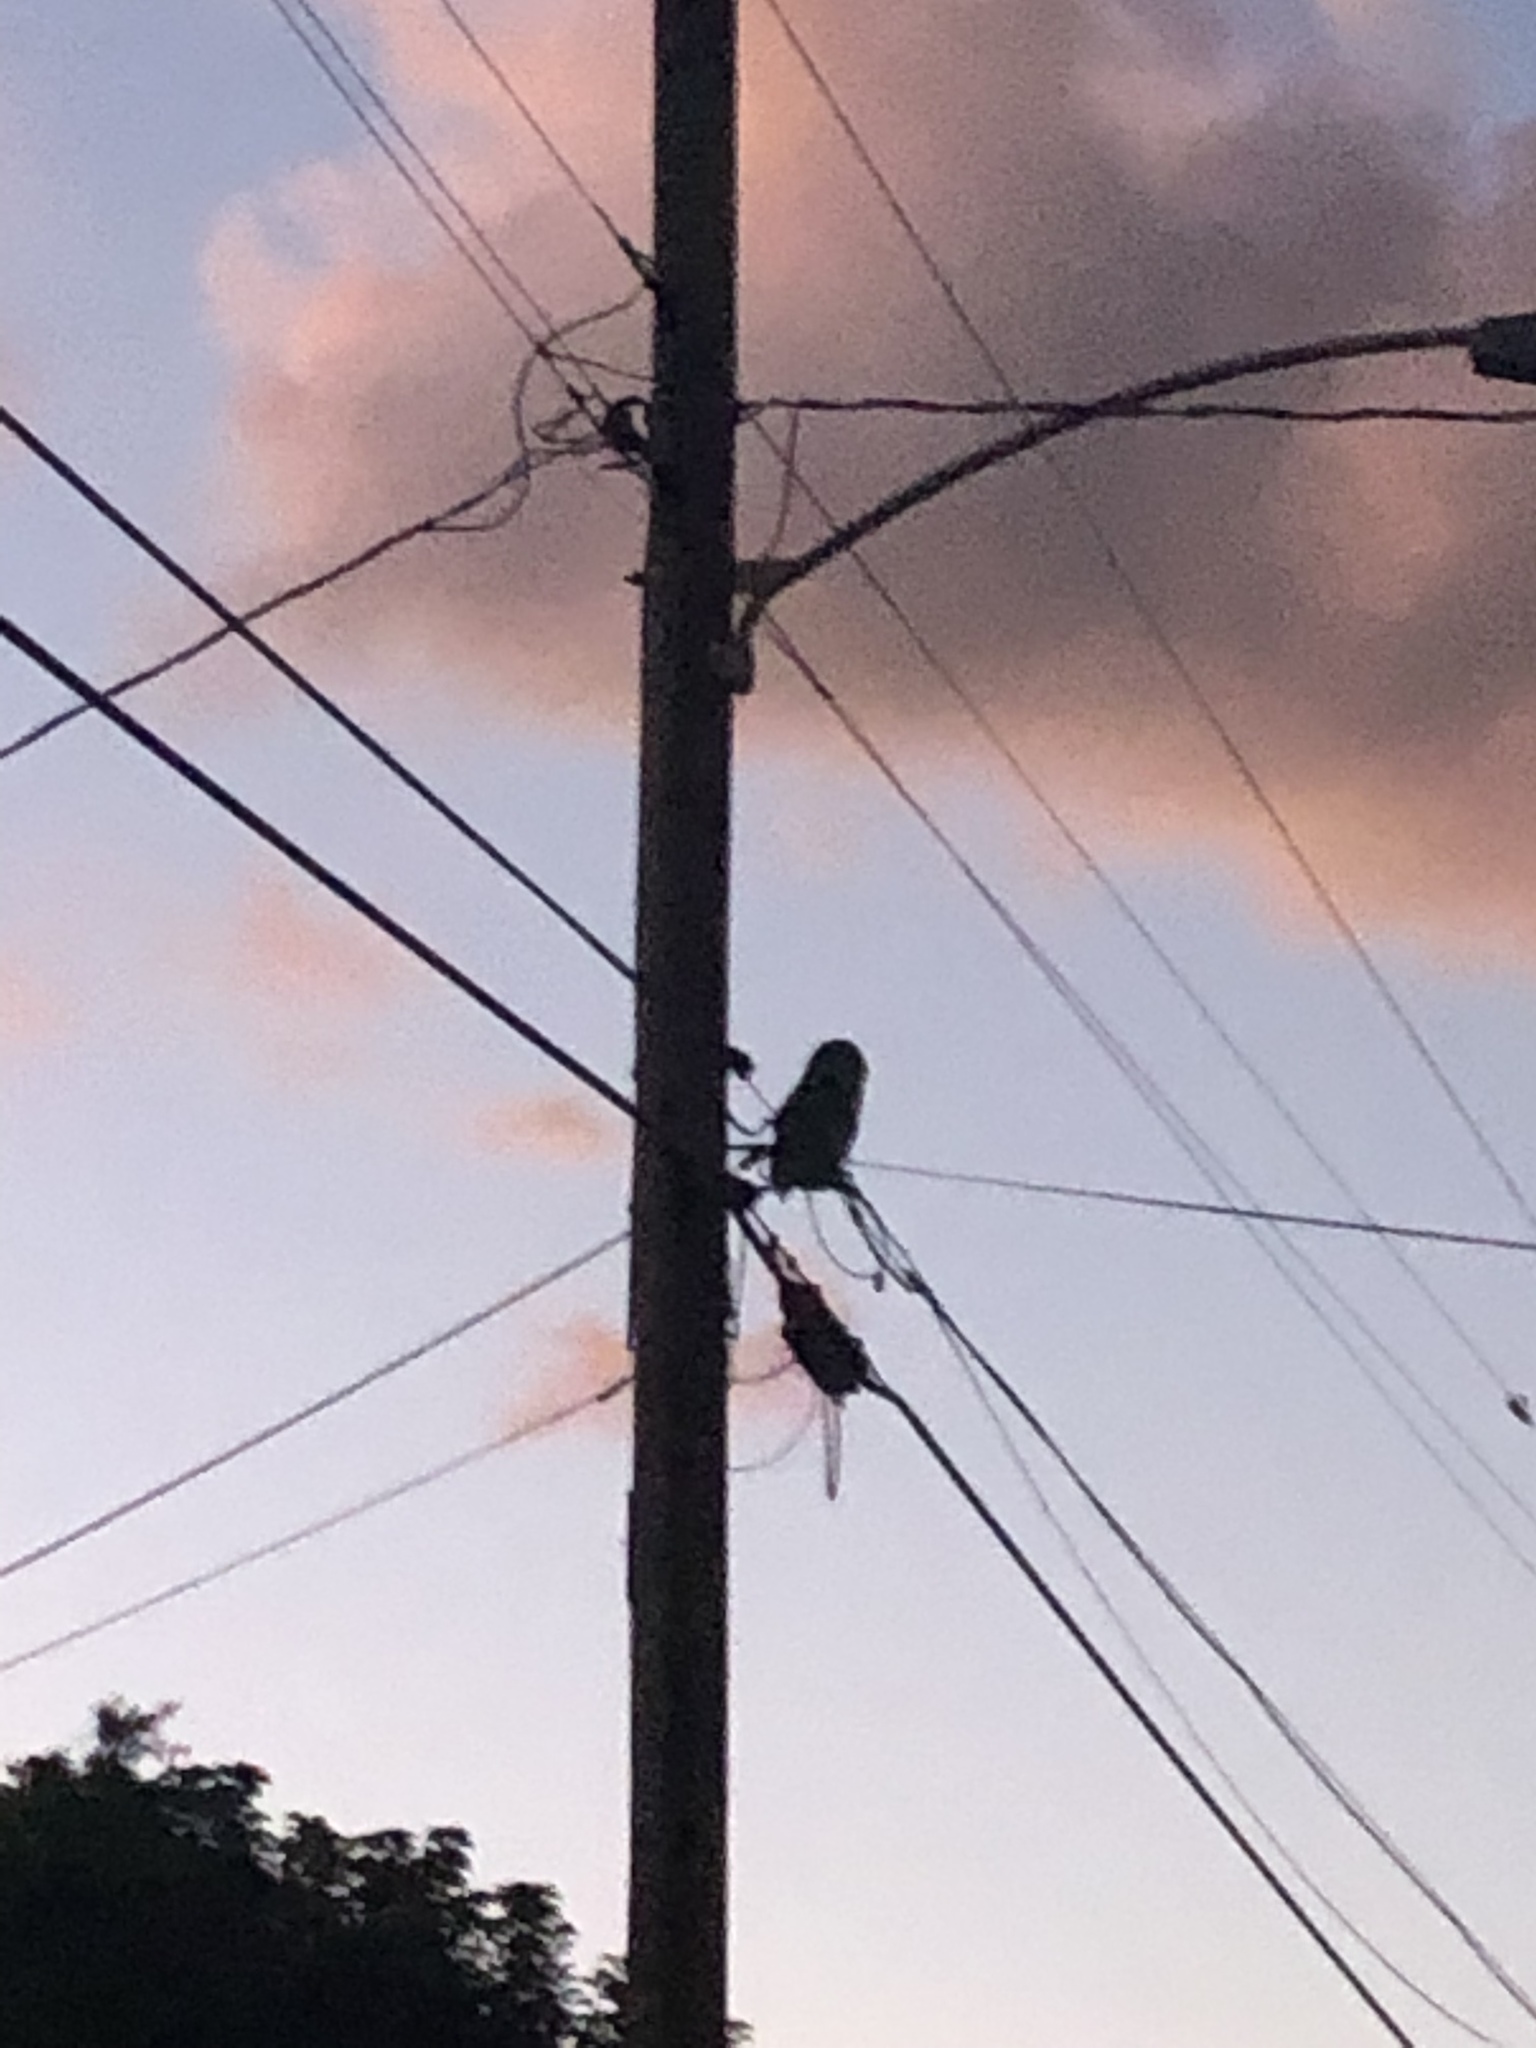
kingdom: Animalia
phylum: Chordata
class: Aves
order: Strigiformes
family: Strigidae
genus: Strix
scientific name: Strix varia
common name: Barred owl
